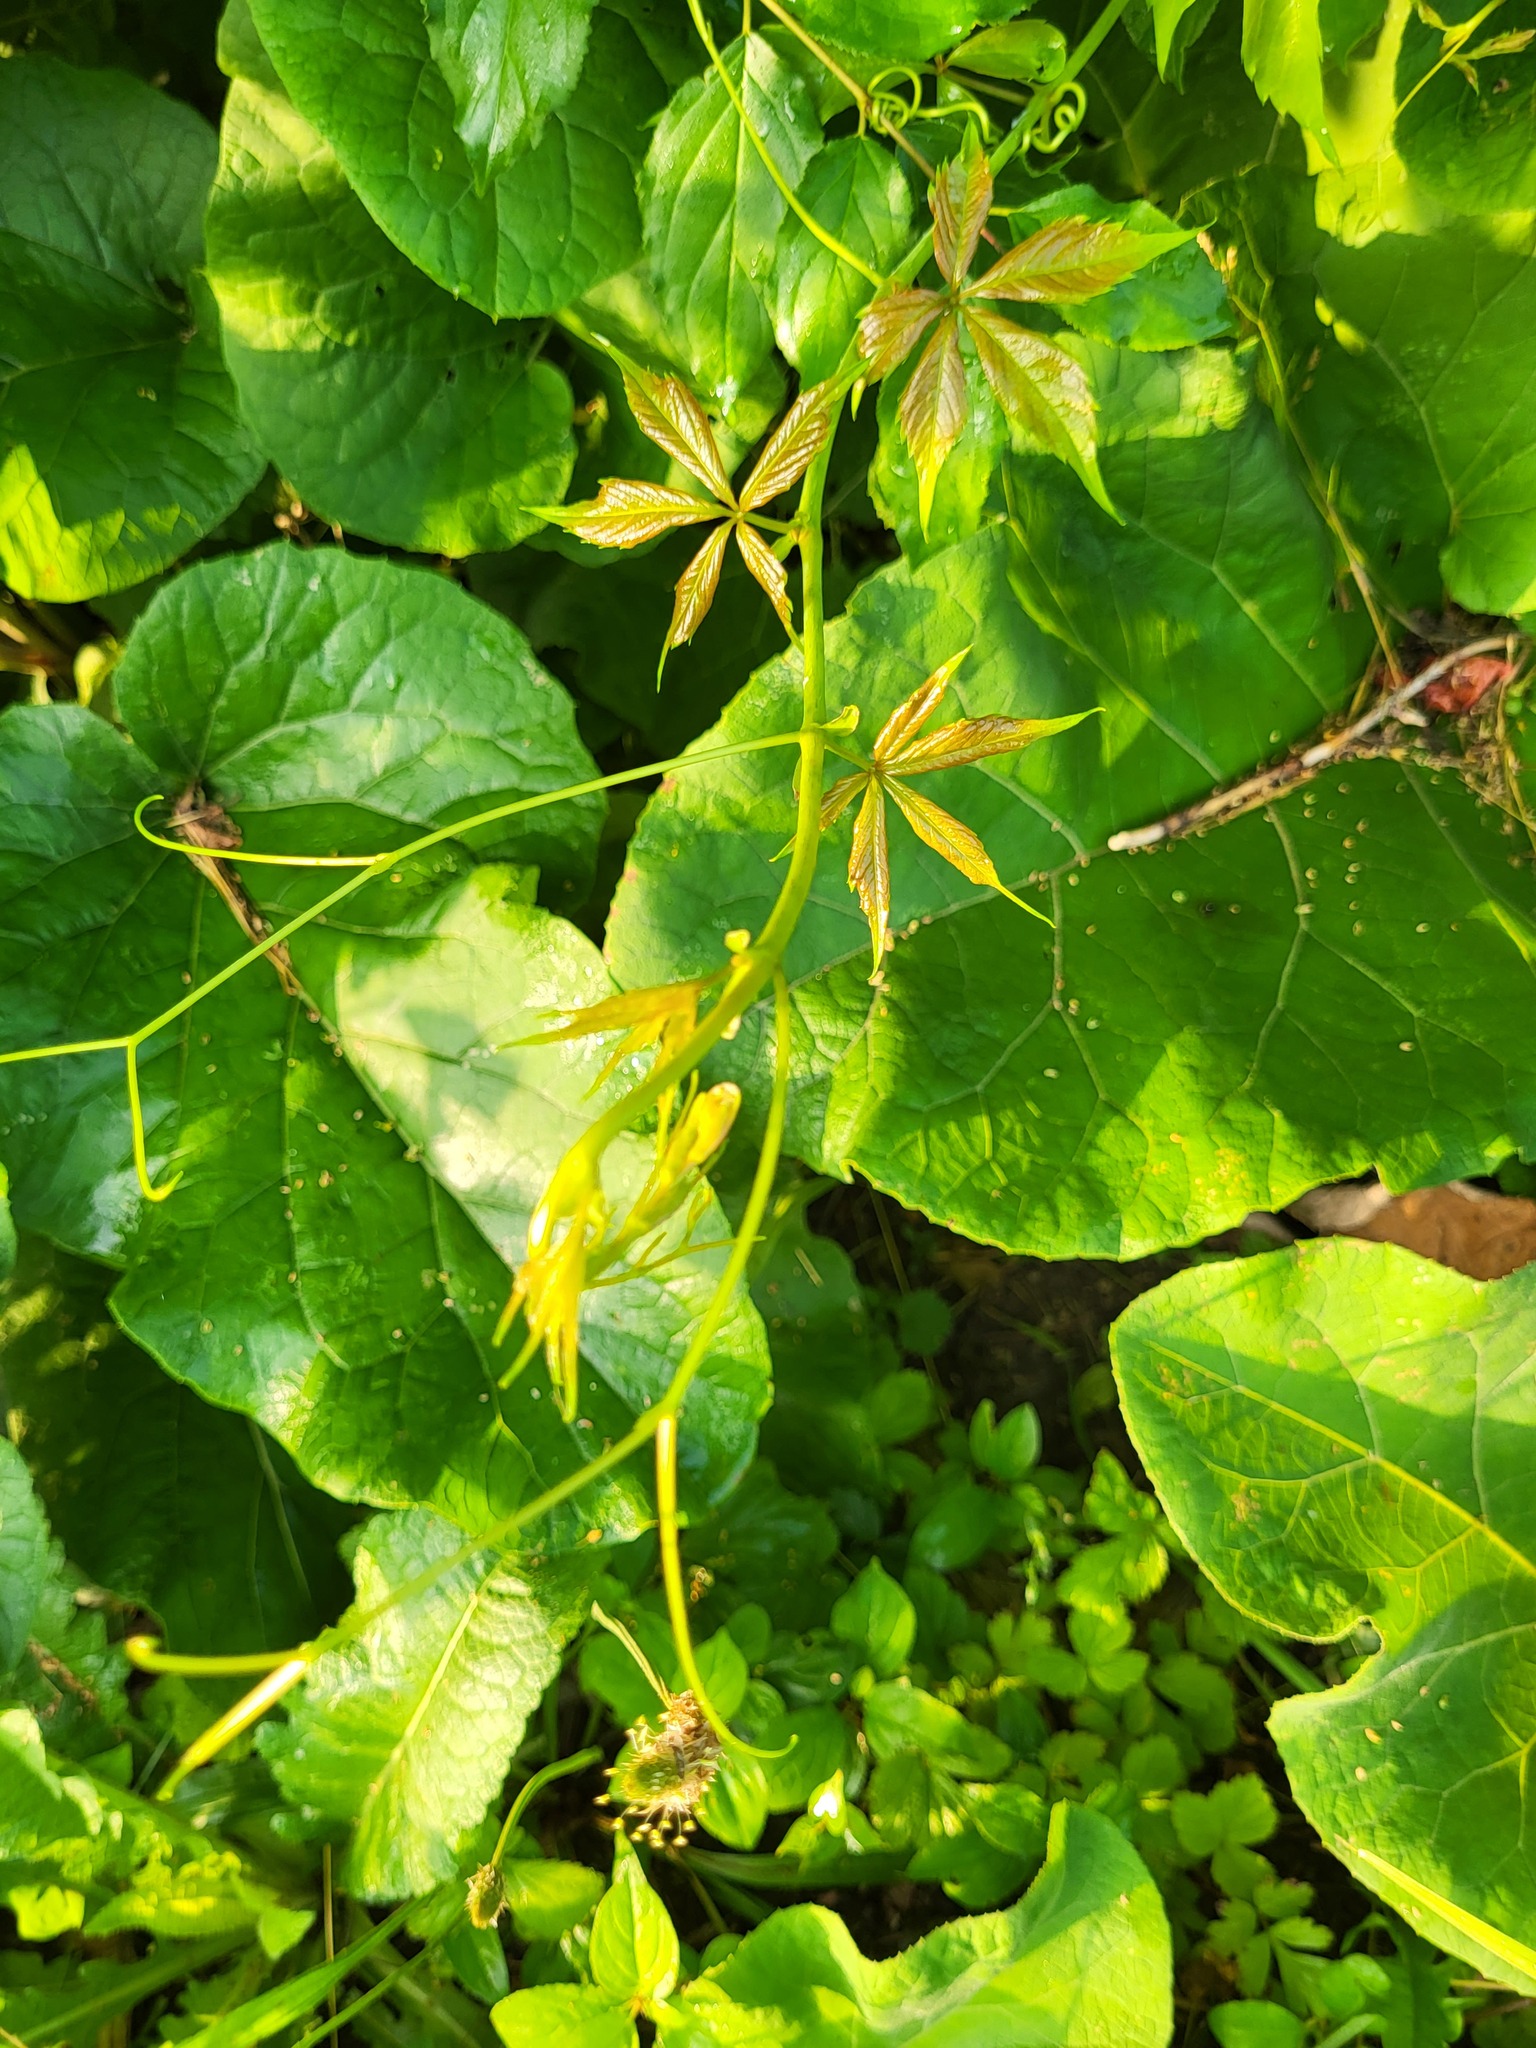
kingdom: Plantae
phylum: Tracheophyta
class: Magnoliopsida
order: Vitales
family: Vitaceae
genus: Parthenocissus
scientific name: Parthenocissus quinquefolia
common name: Virginia-creeper
